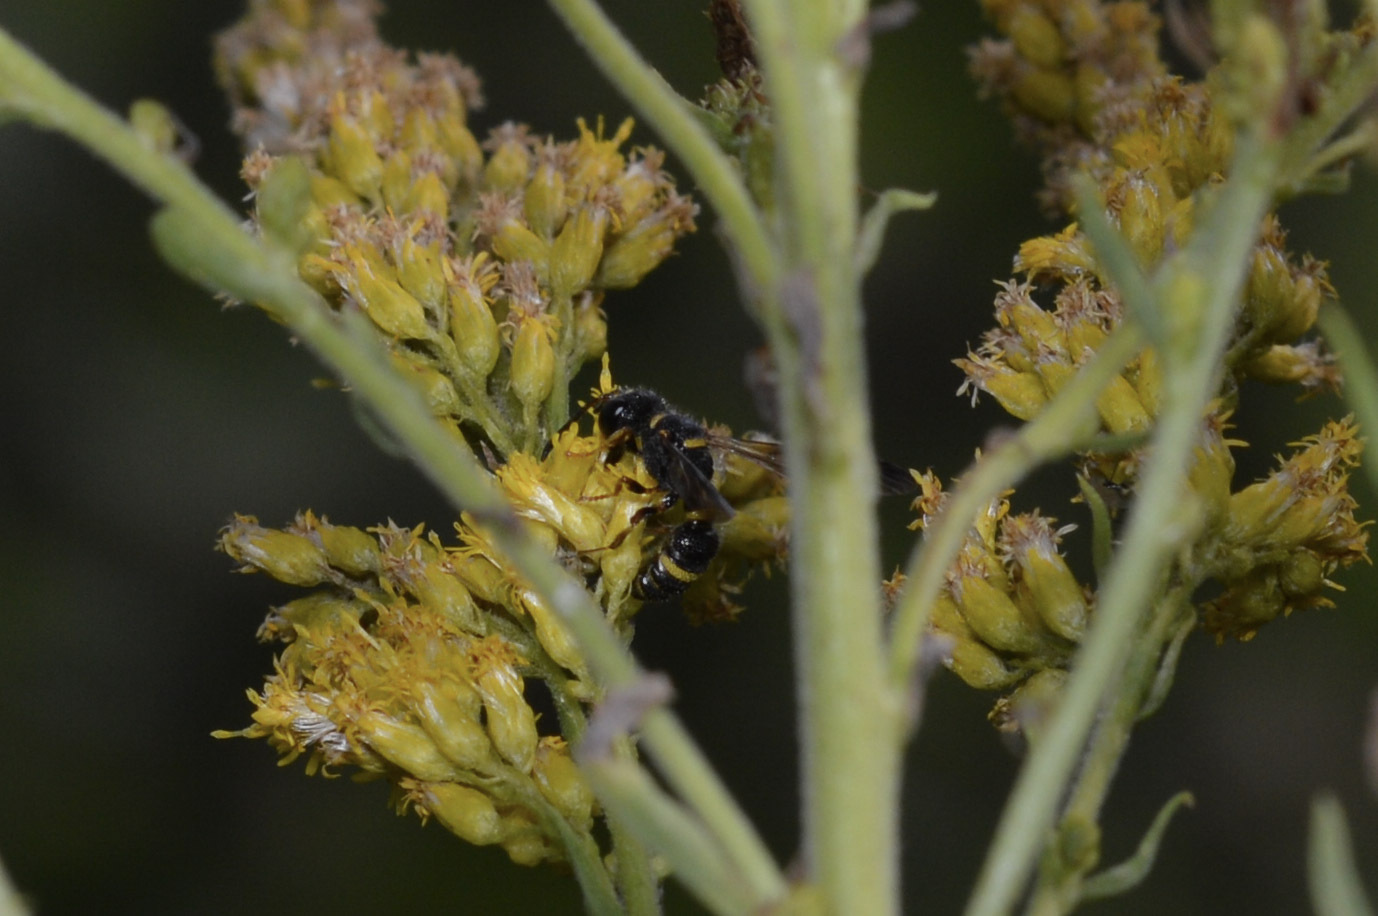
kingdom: Animalia
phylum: Arthropoda
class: Insecta
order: Hymenoptera
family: Crabronidae
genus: Cerceris
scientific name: Cerceris insolita
